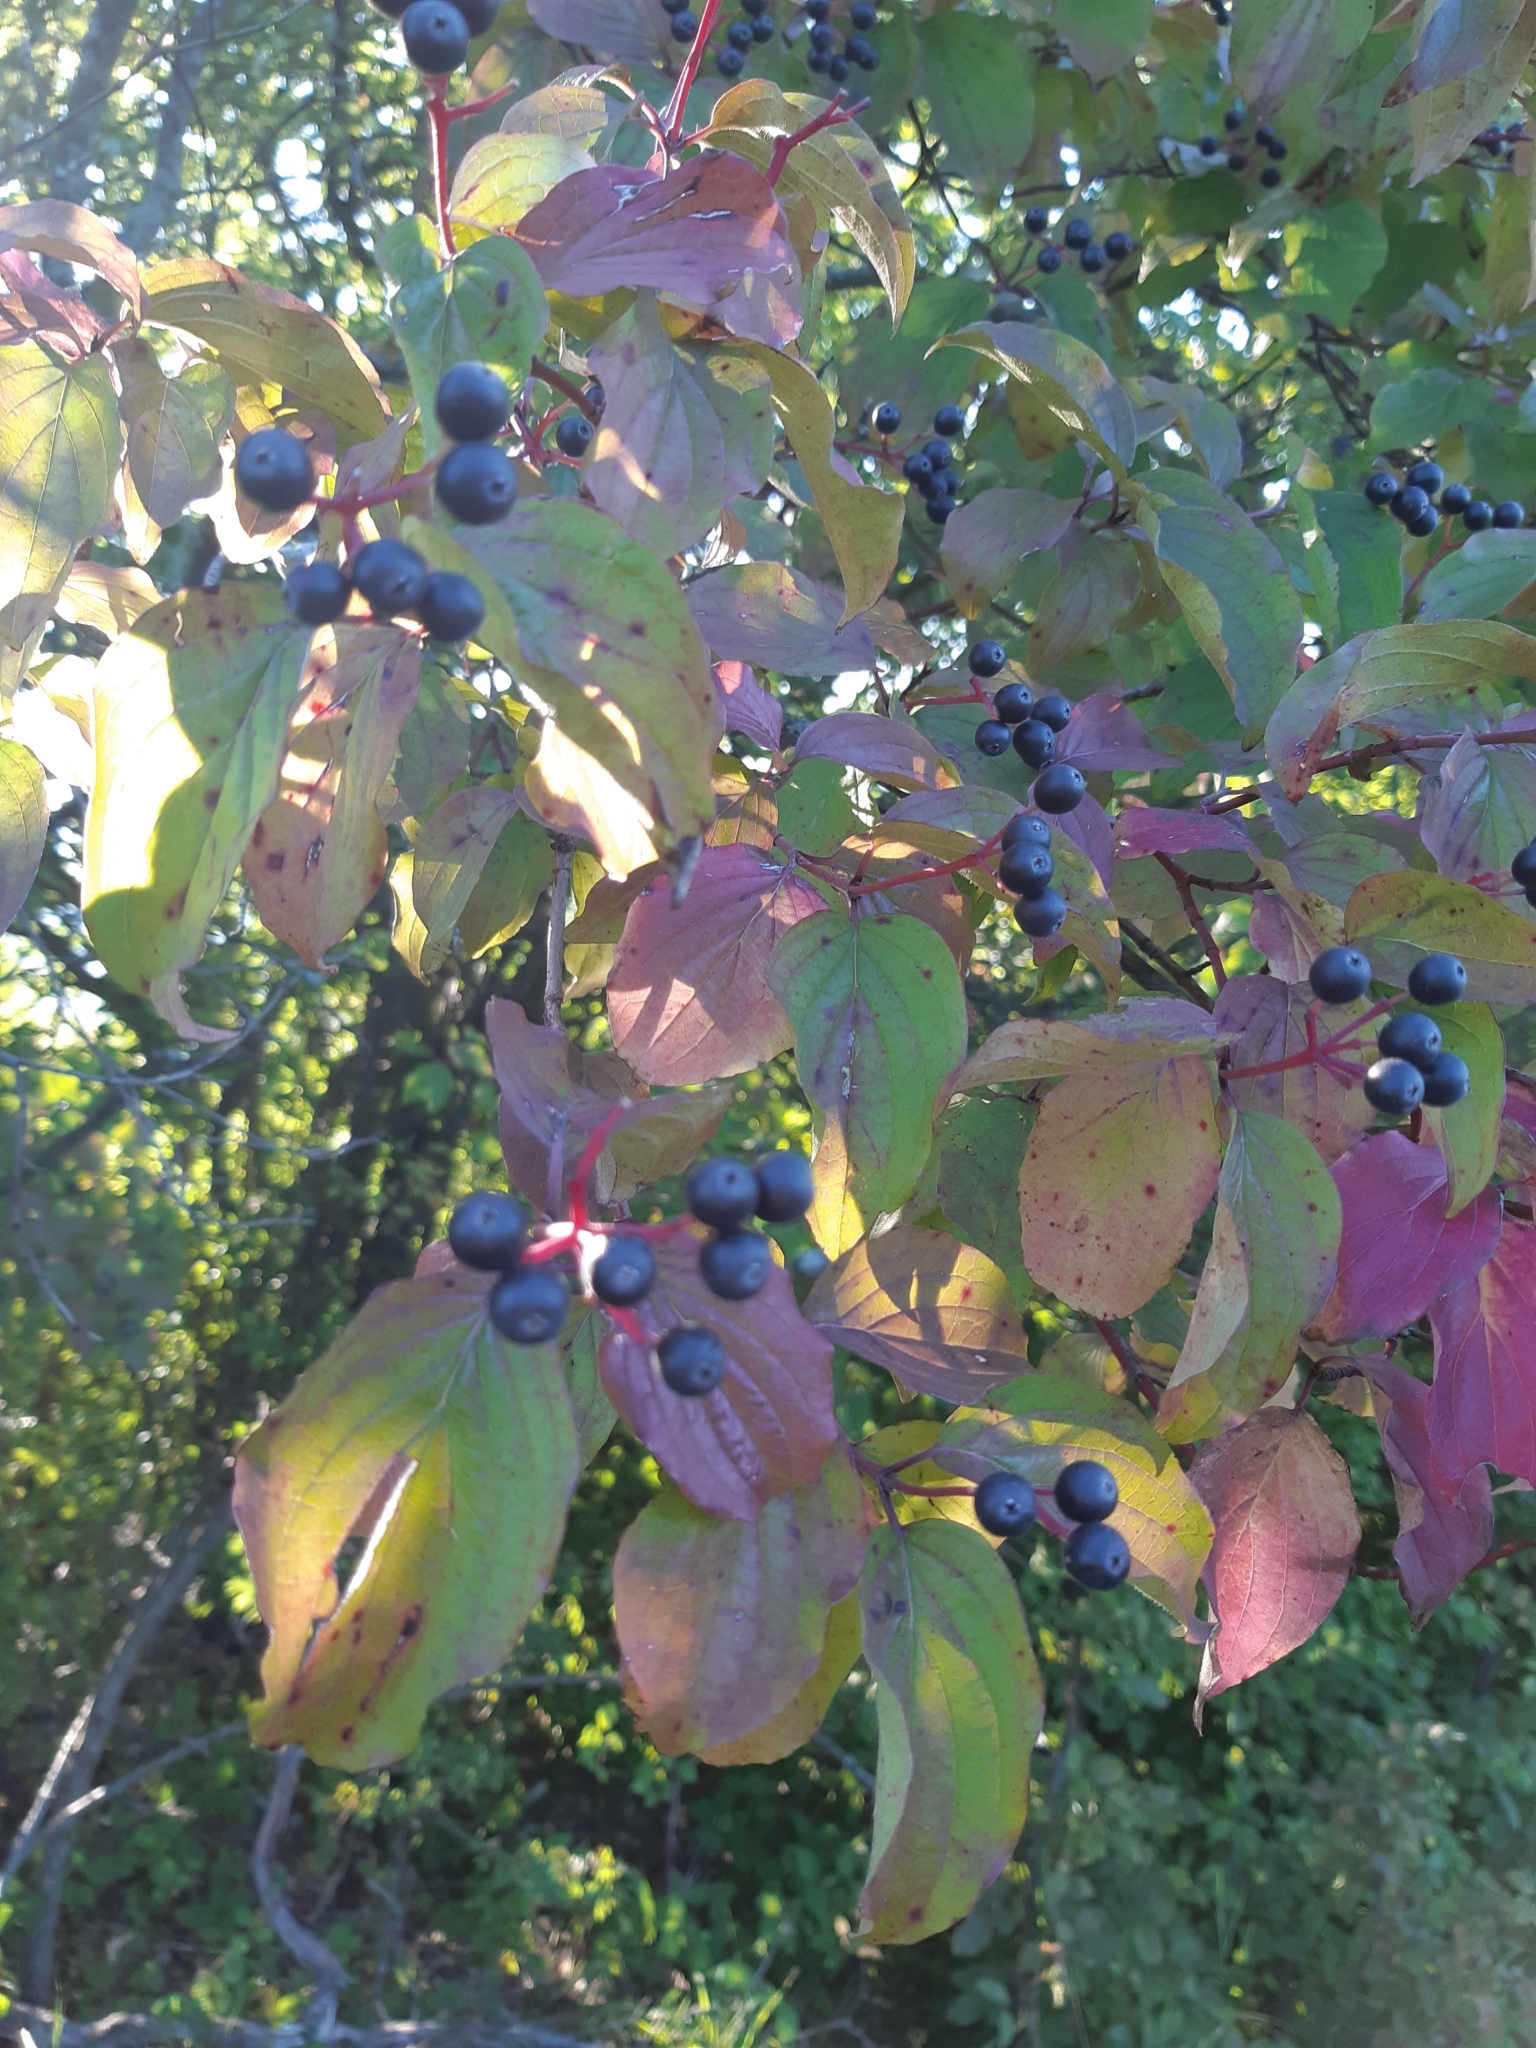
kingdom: Plantae
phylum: Tracheophyta
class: Magnoliopsida
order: Cornales
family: Cornaceae
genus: Cornus
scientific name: Cornus sanguinea
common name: Dogwood
